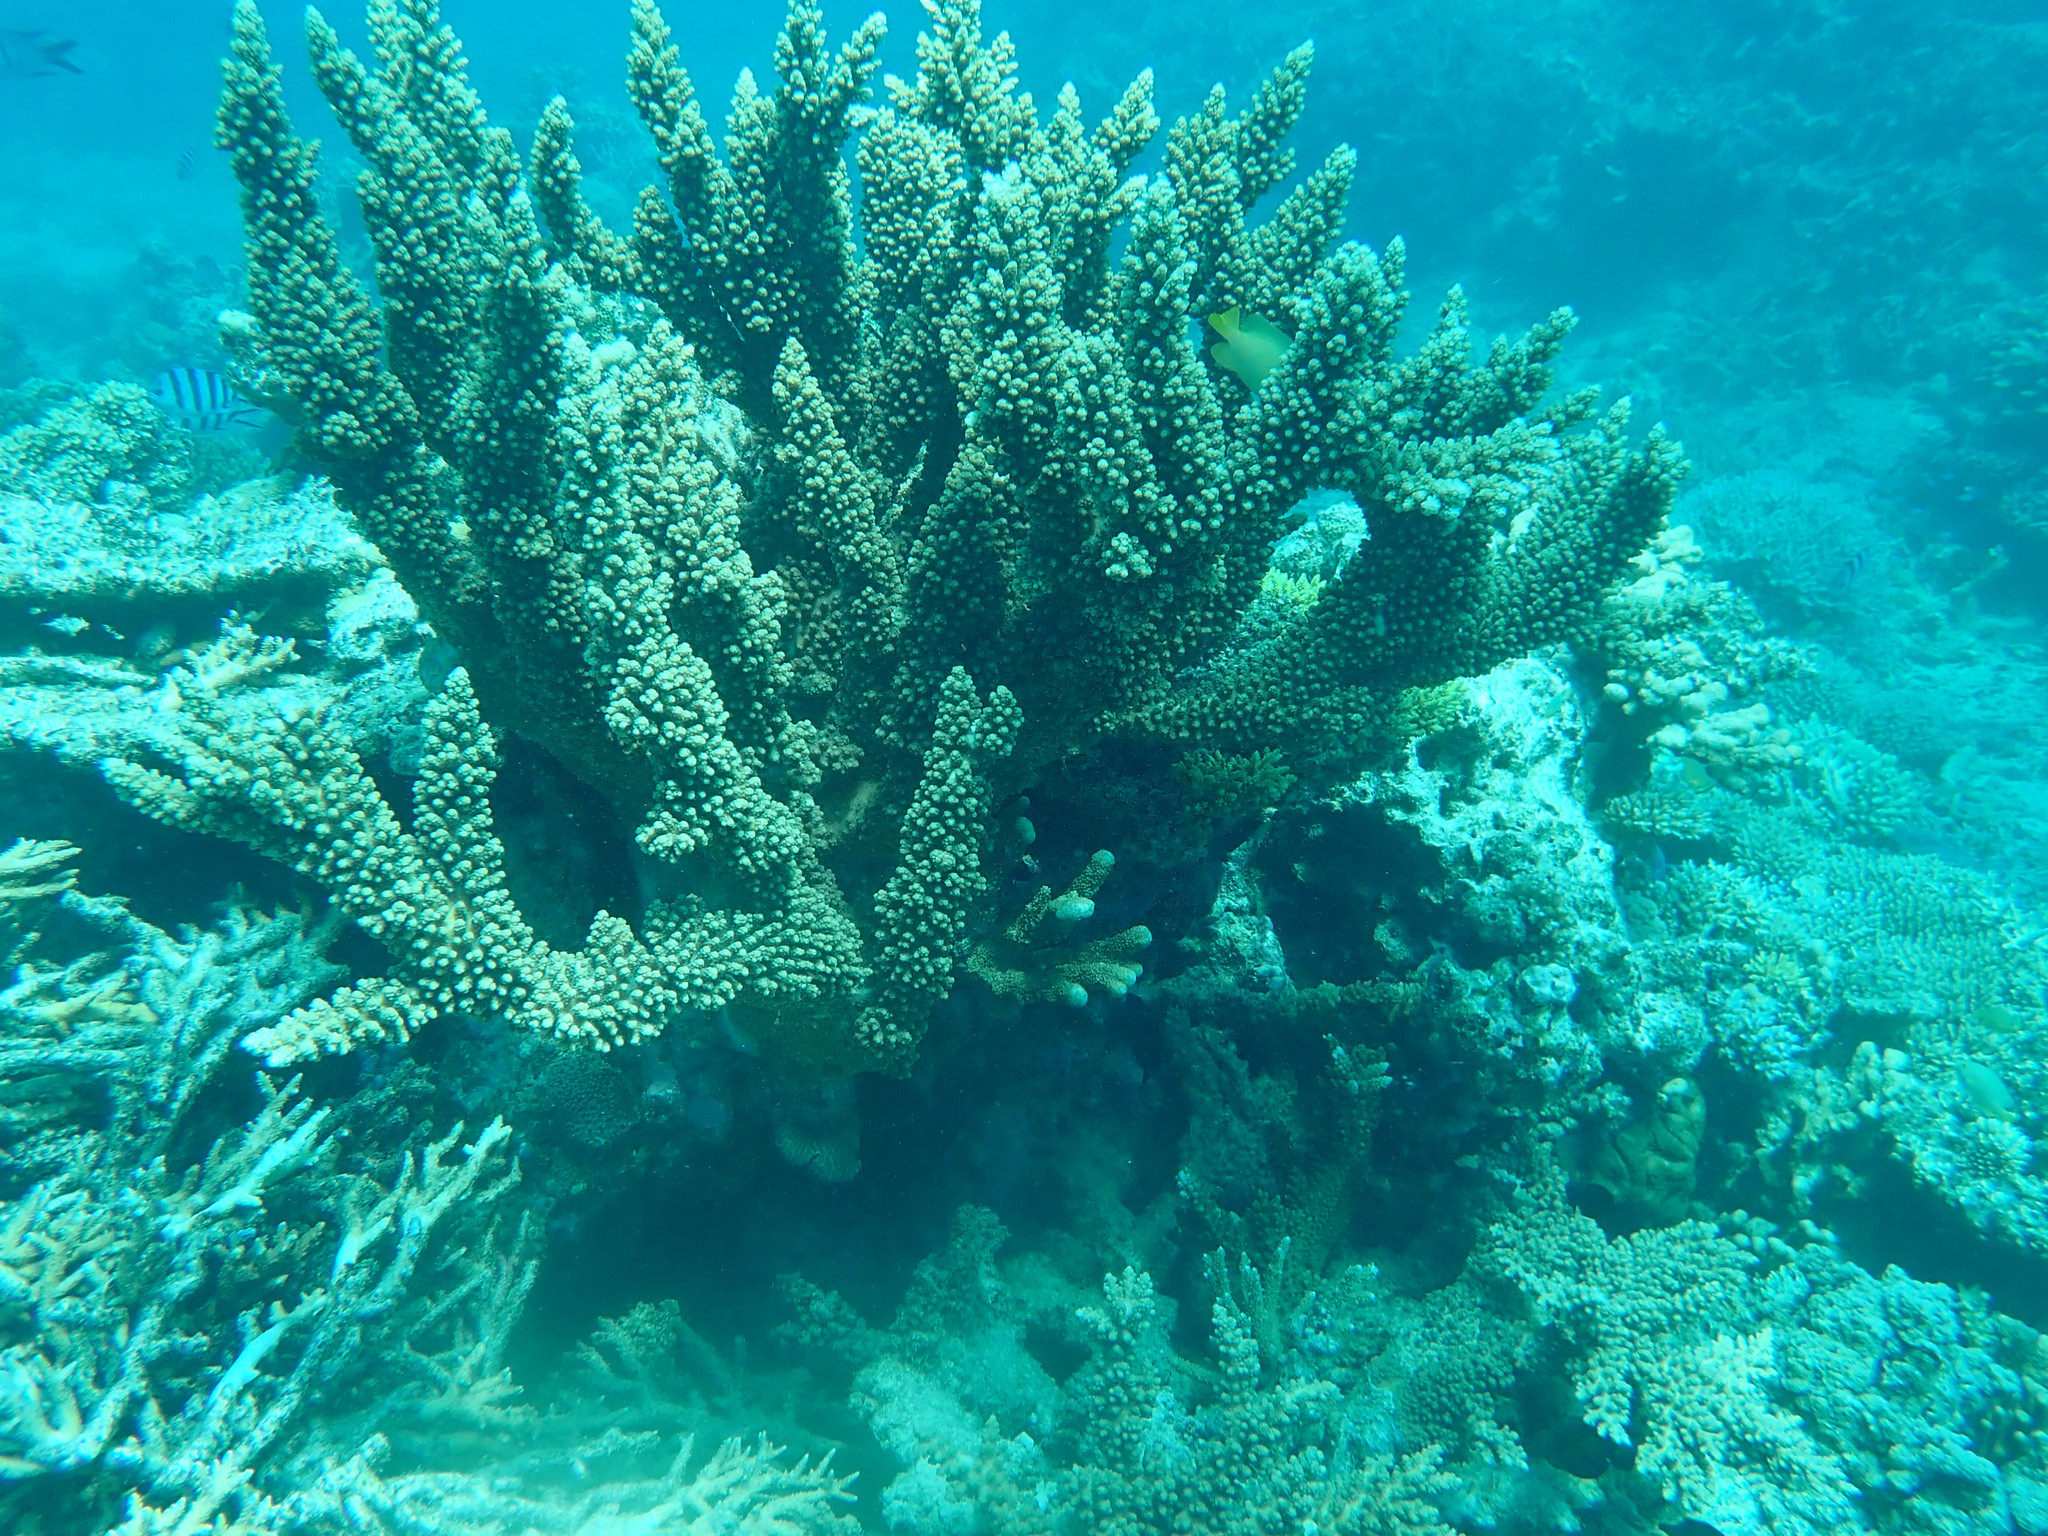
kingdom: Animalia
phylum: Cnidaria
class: Anthozoa
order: Scleractinia
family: Acroporidae
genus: Acropora
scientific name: Acropora florida
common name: Branch coral
